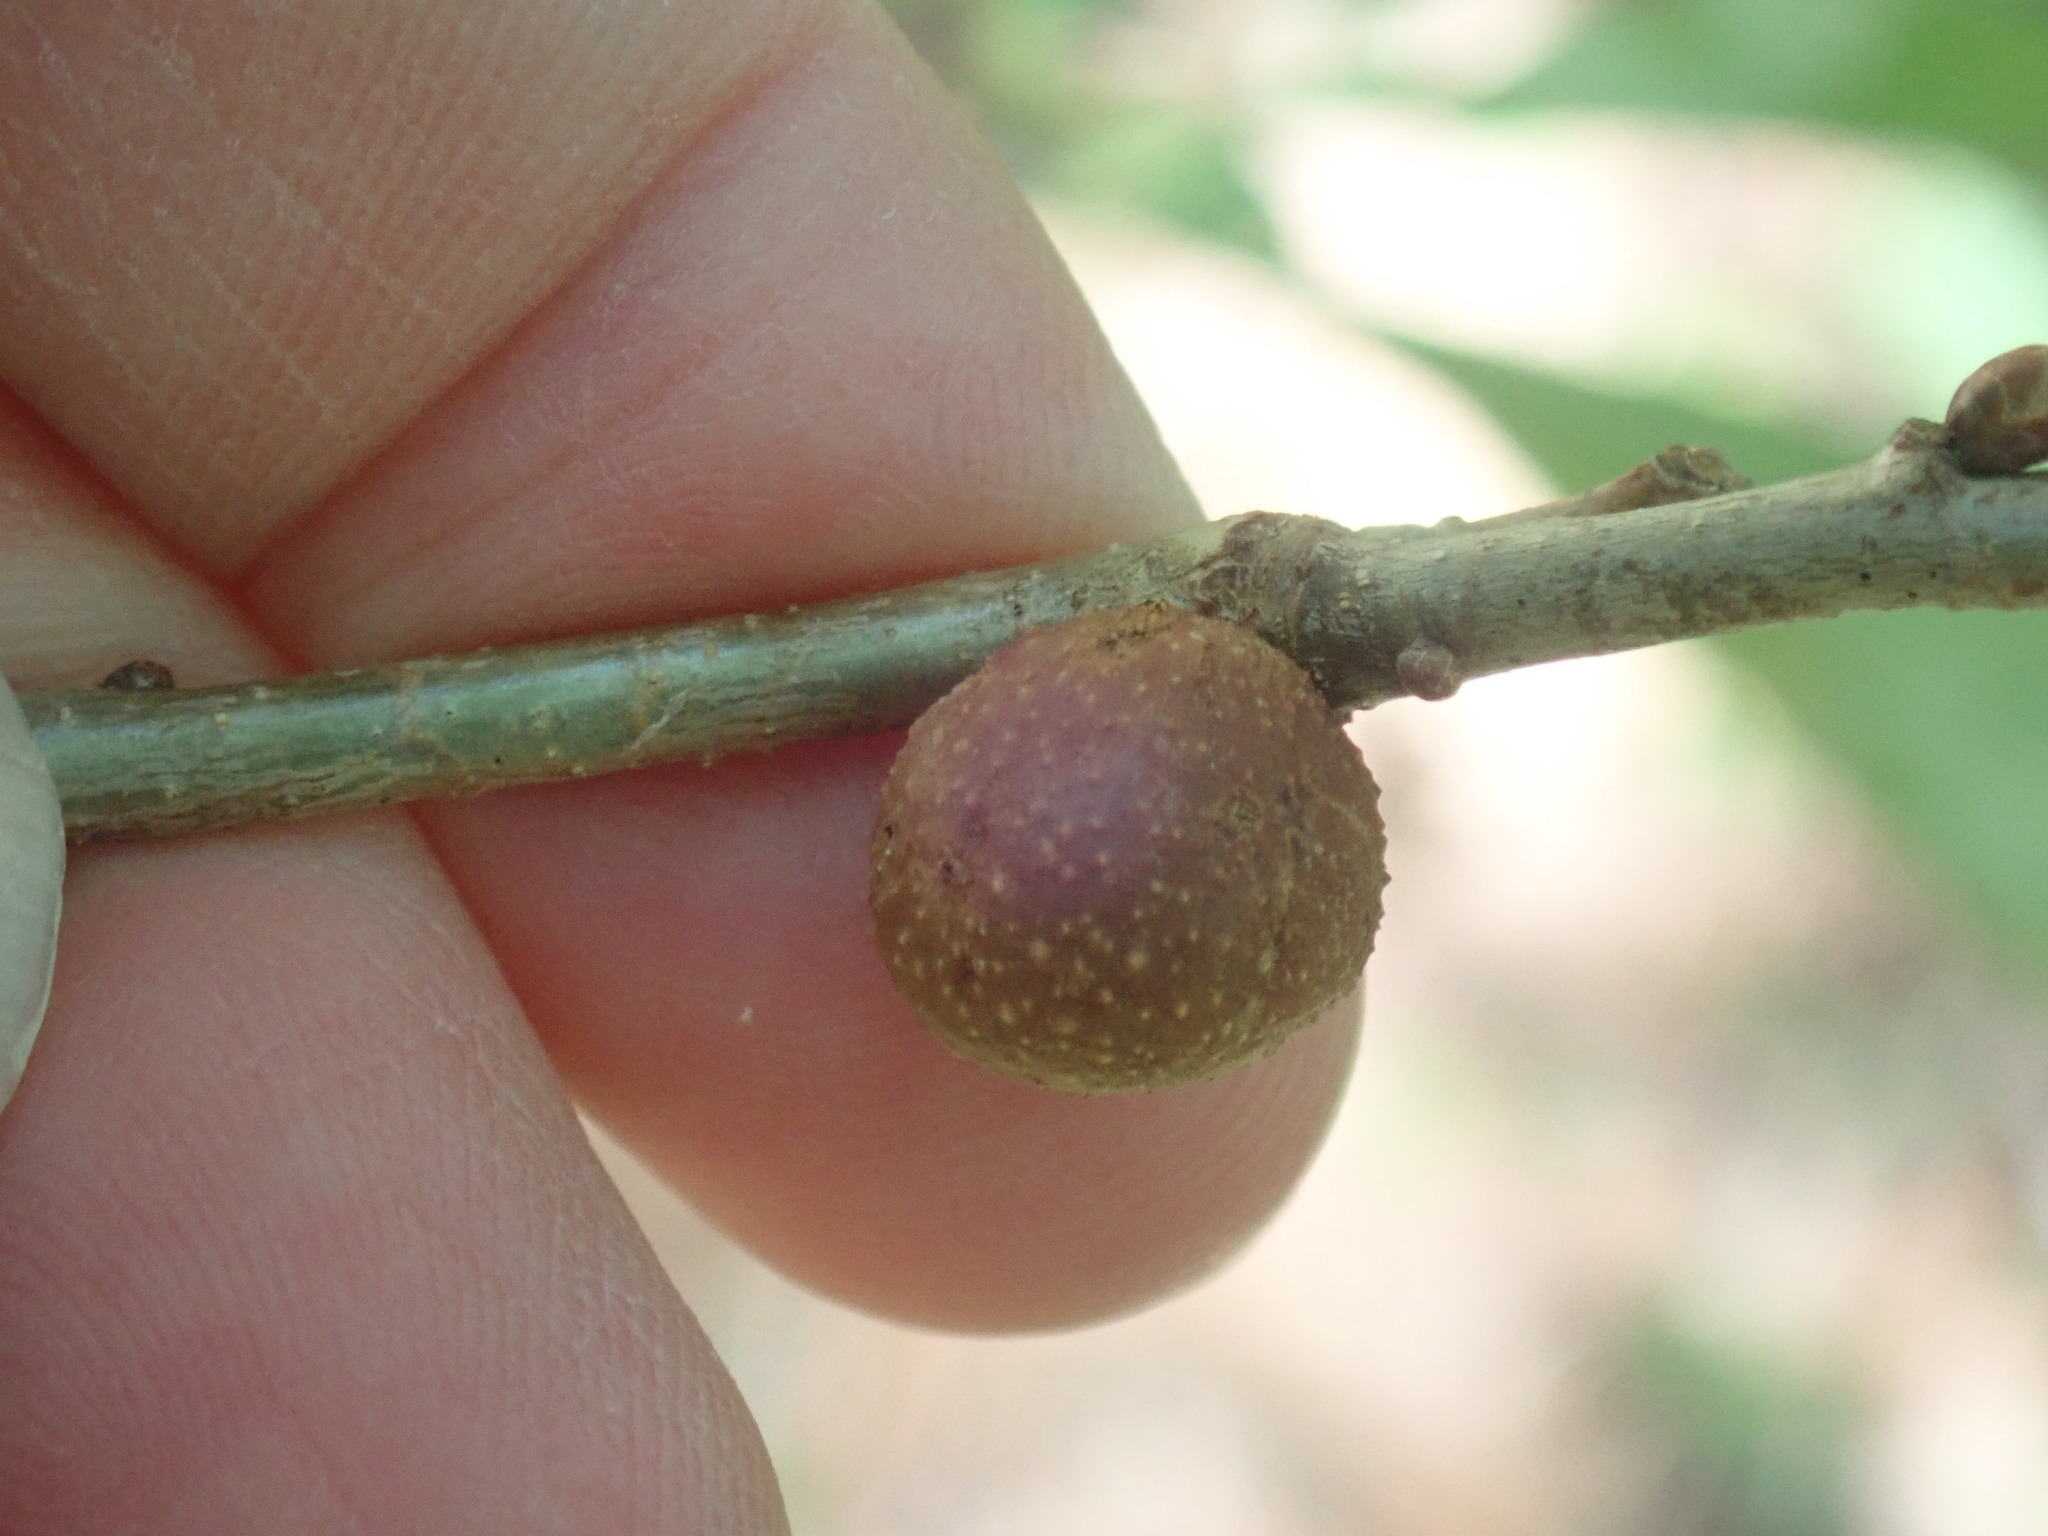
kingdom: Animalia
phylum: Arthropoda
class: Insecta
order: Hymenoptera
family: Cynipidae
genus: Disholcaspis
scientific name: Disholcaspis quercusglobulus
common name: Round bullet gall wasp
